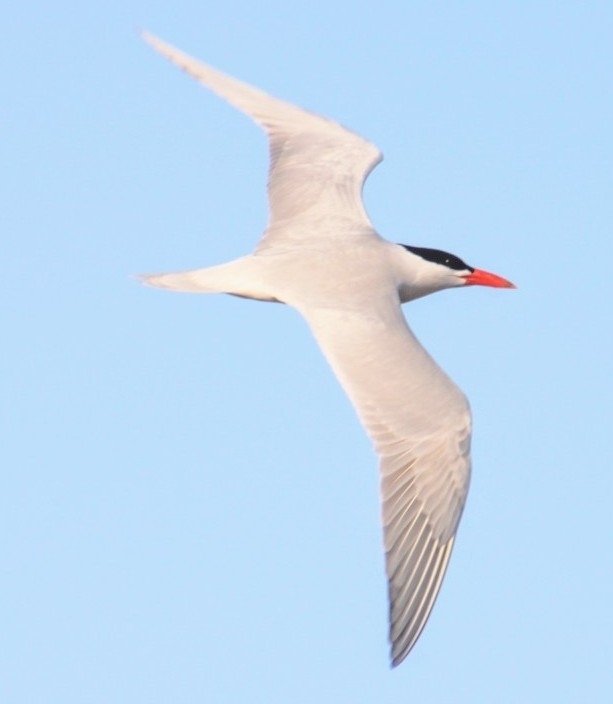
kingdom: Animalia
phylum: Chordata
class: Aves
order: Charadriiformes
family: Laridae
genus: Hydroprogne
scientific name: Hydroprogne caspia
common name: Caspian tern
